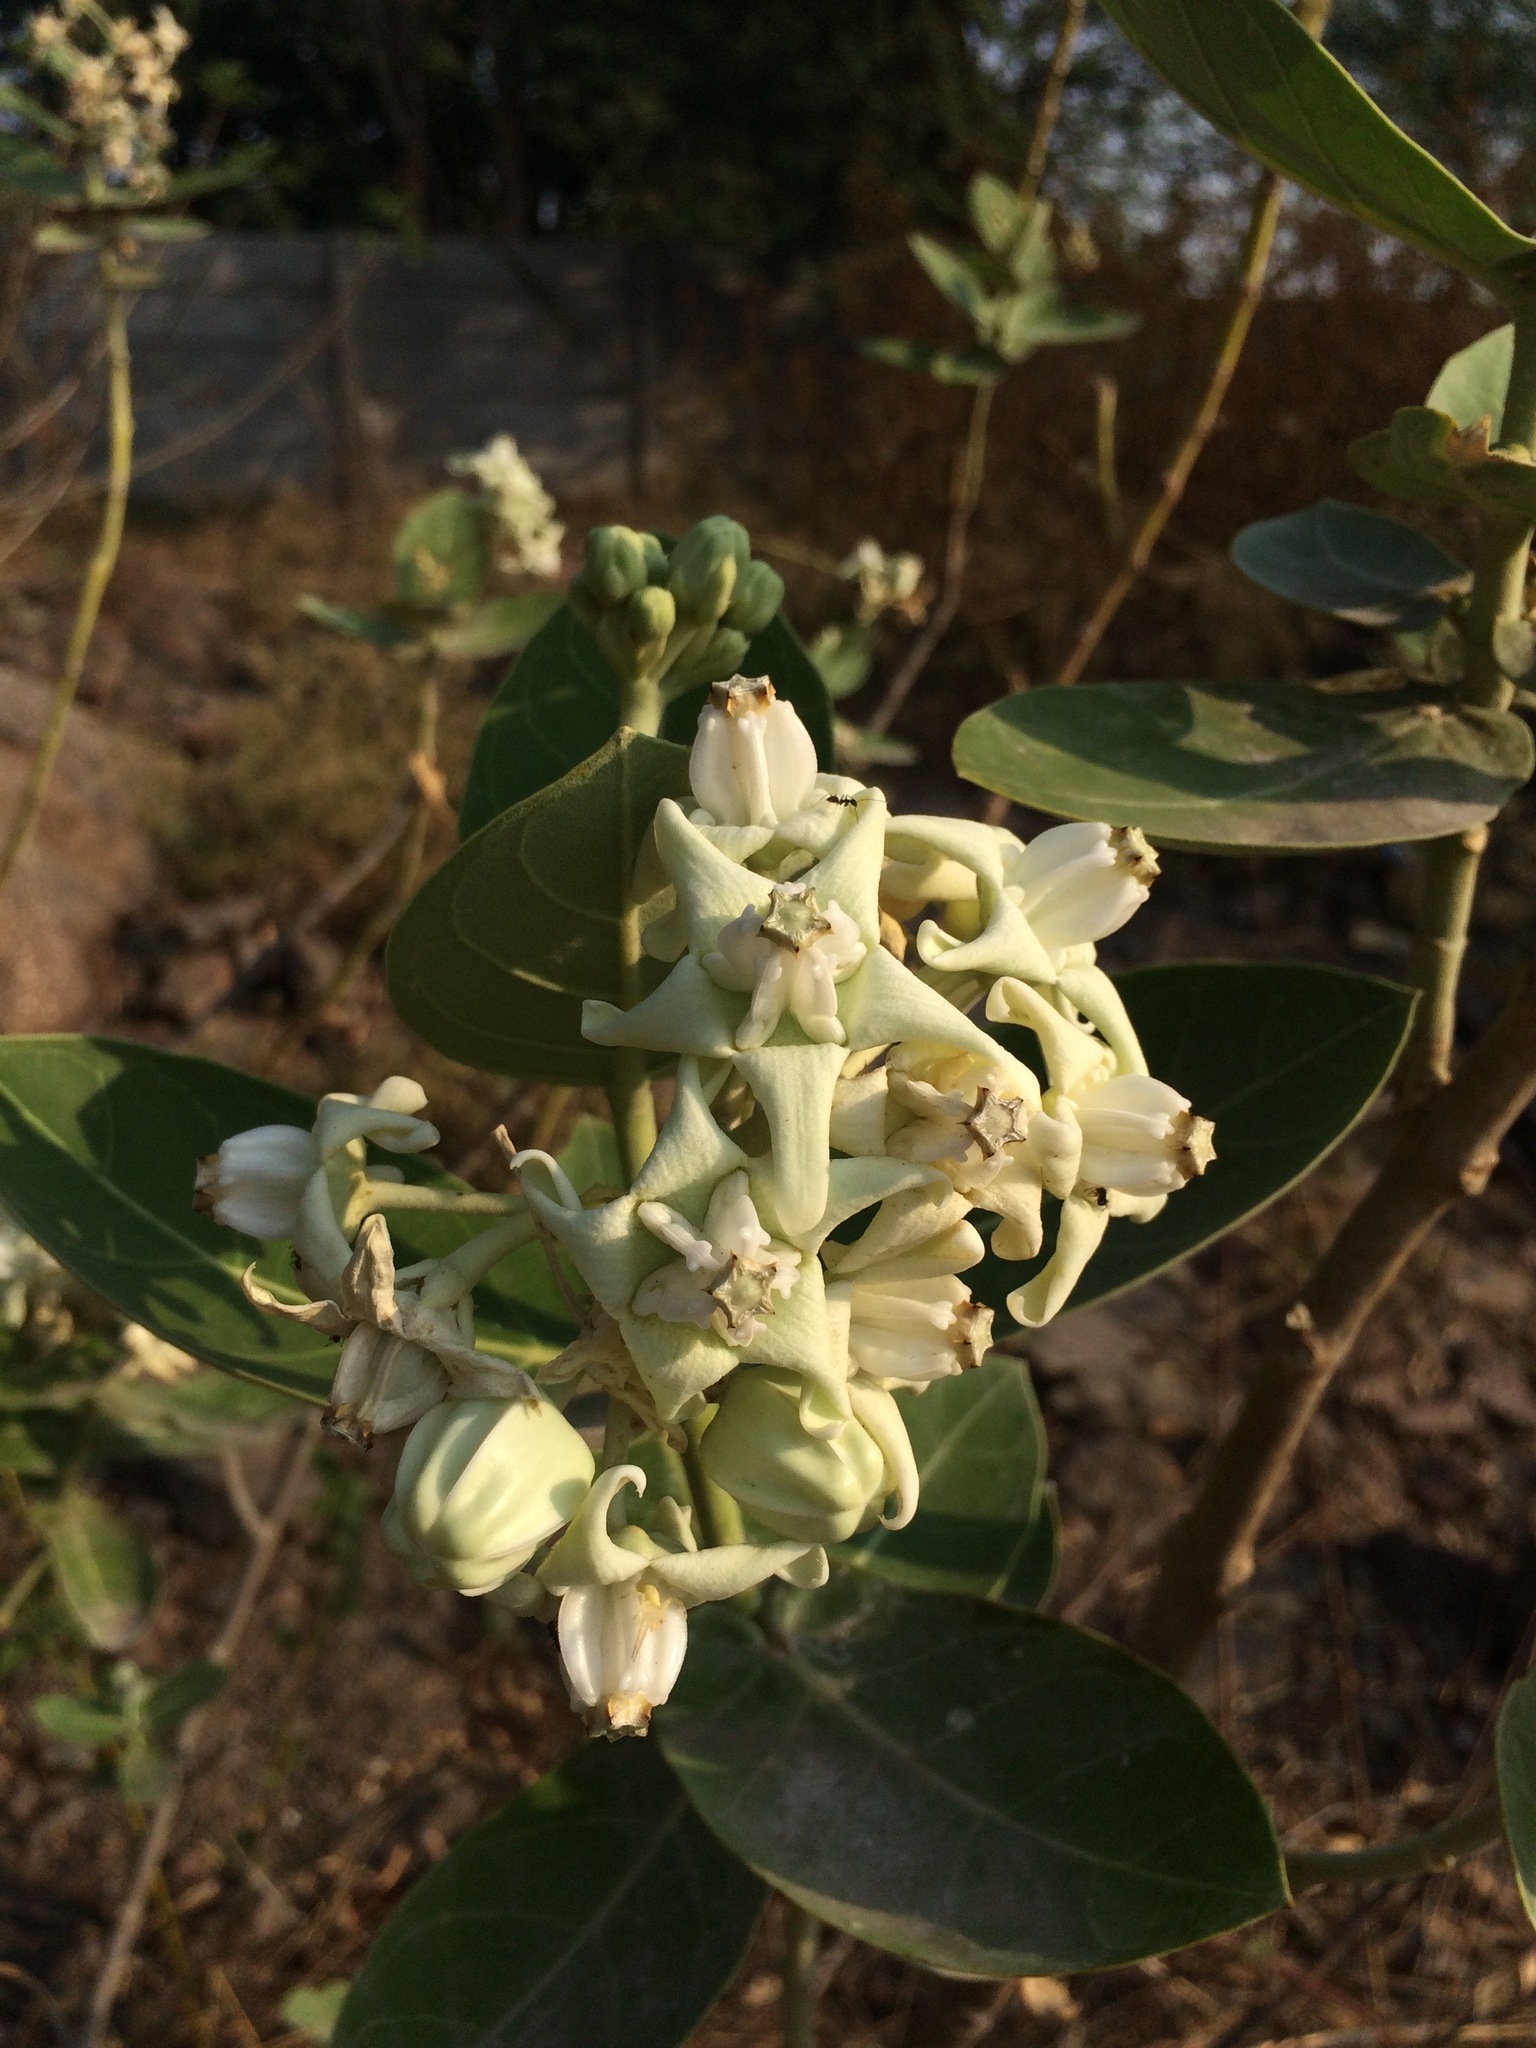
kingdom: Plantae
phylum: Tracheophyta
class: Magnoliopsida
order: Gentianales
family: Apocynaceae
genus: Calotropis
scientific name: Calotropis gigantea
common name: Crown flower
